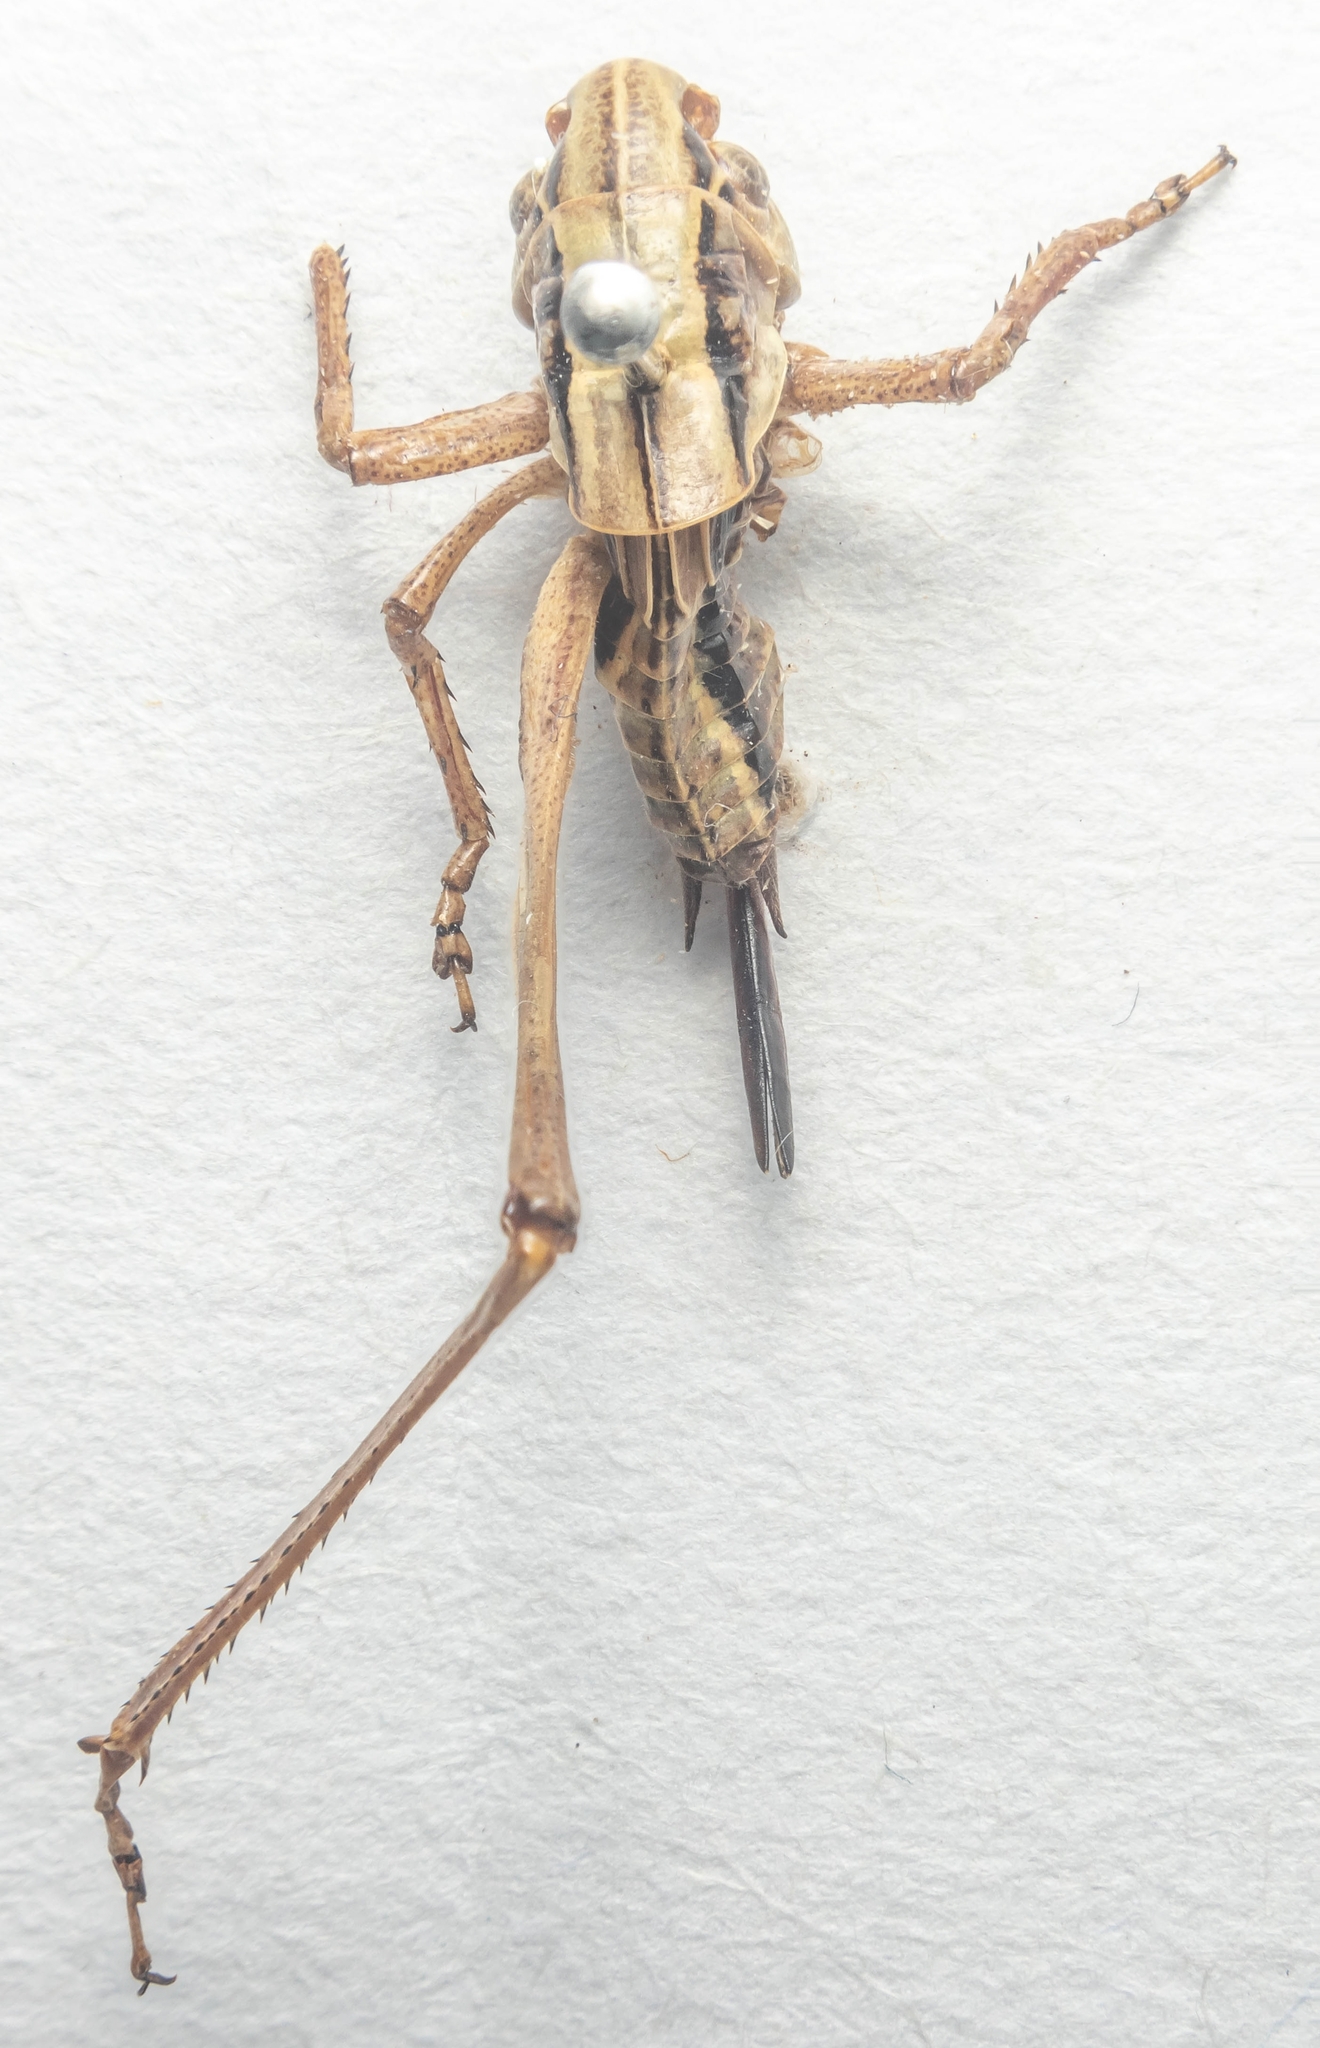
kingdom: Animalia
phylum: Arthropoda
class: Insecta
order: Orthoptera
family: Tettigoniidae
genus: Roeseliana
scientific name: Roeseliana roeselii
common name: Roesel's bush cricket
